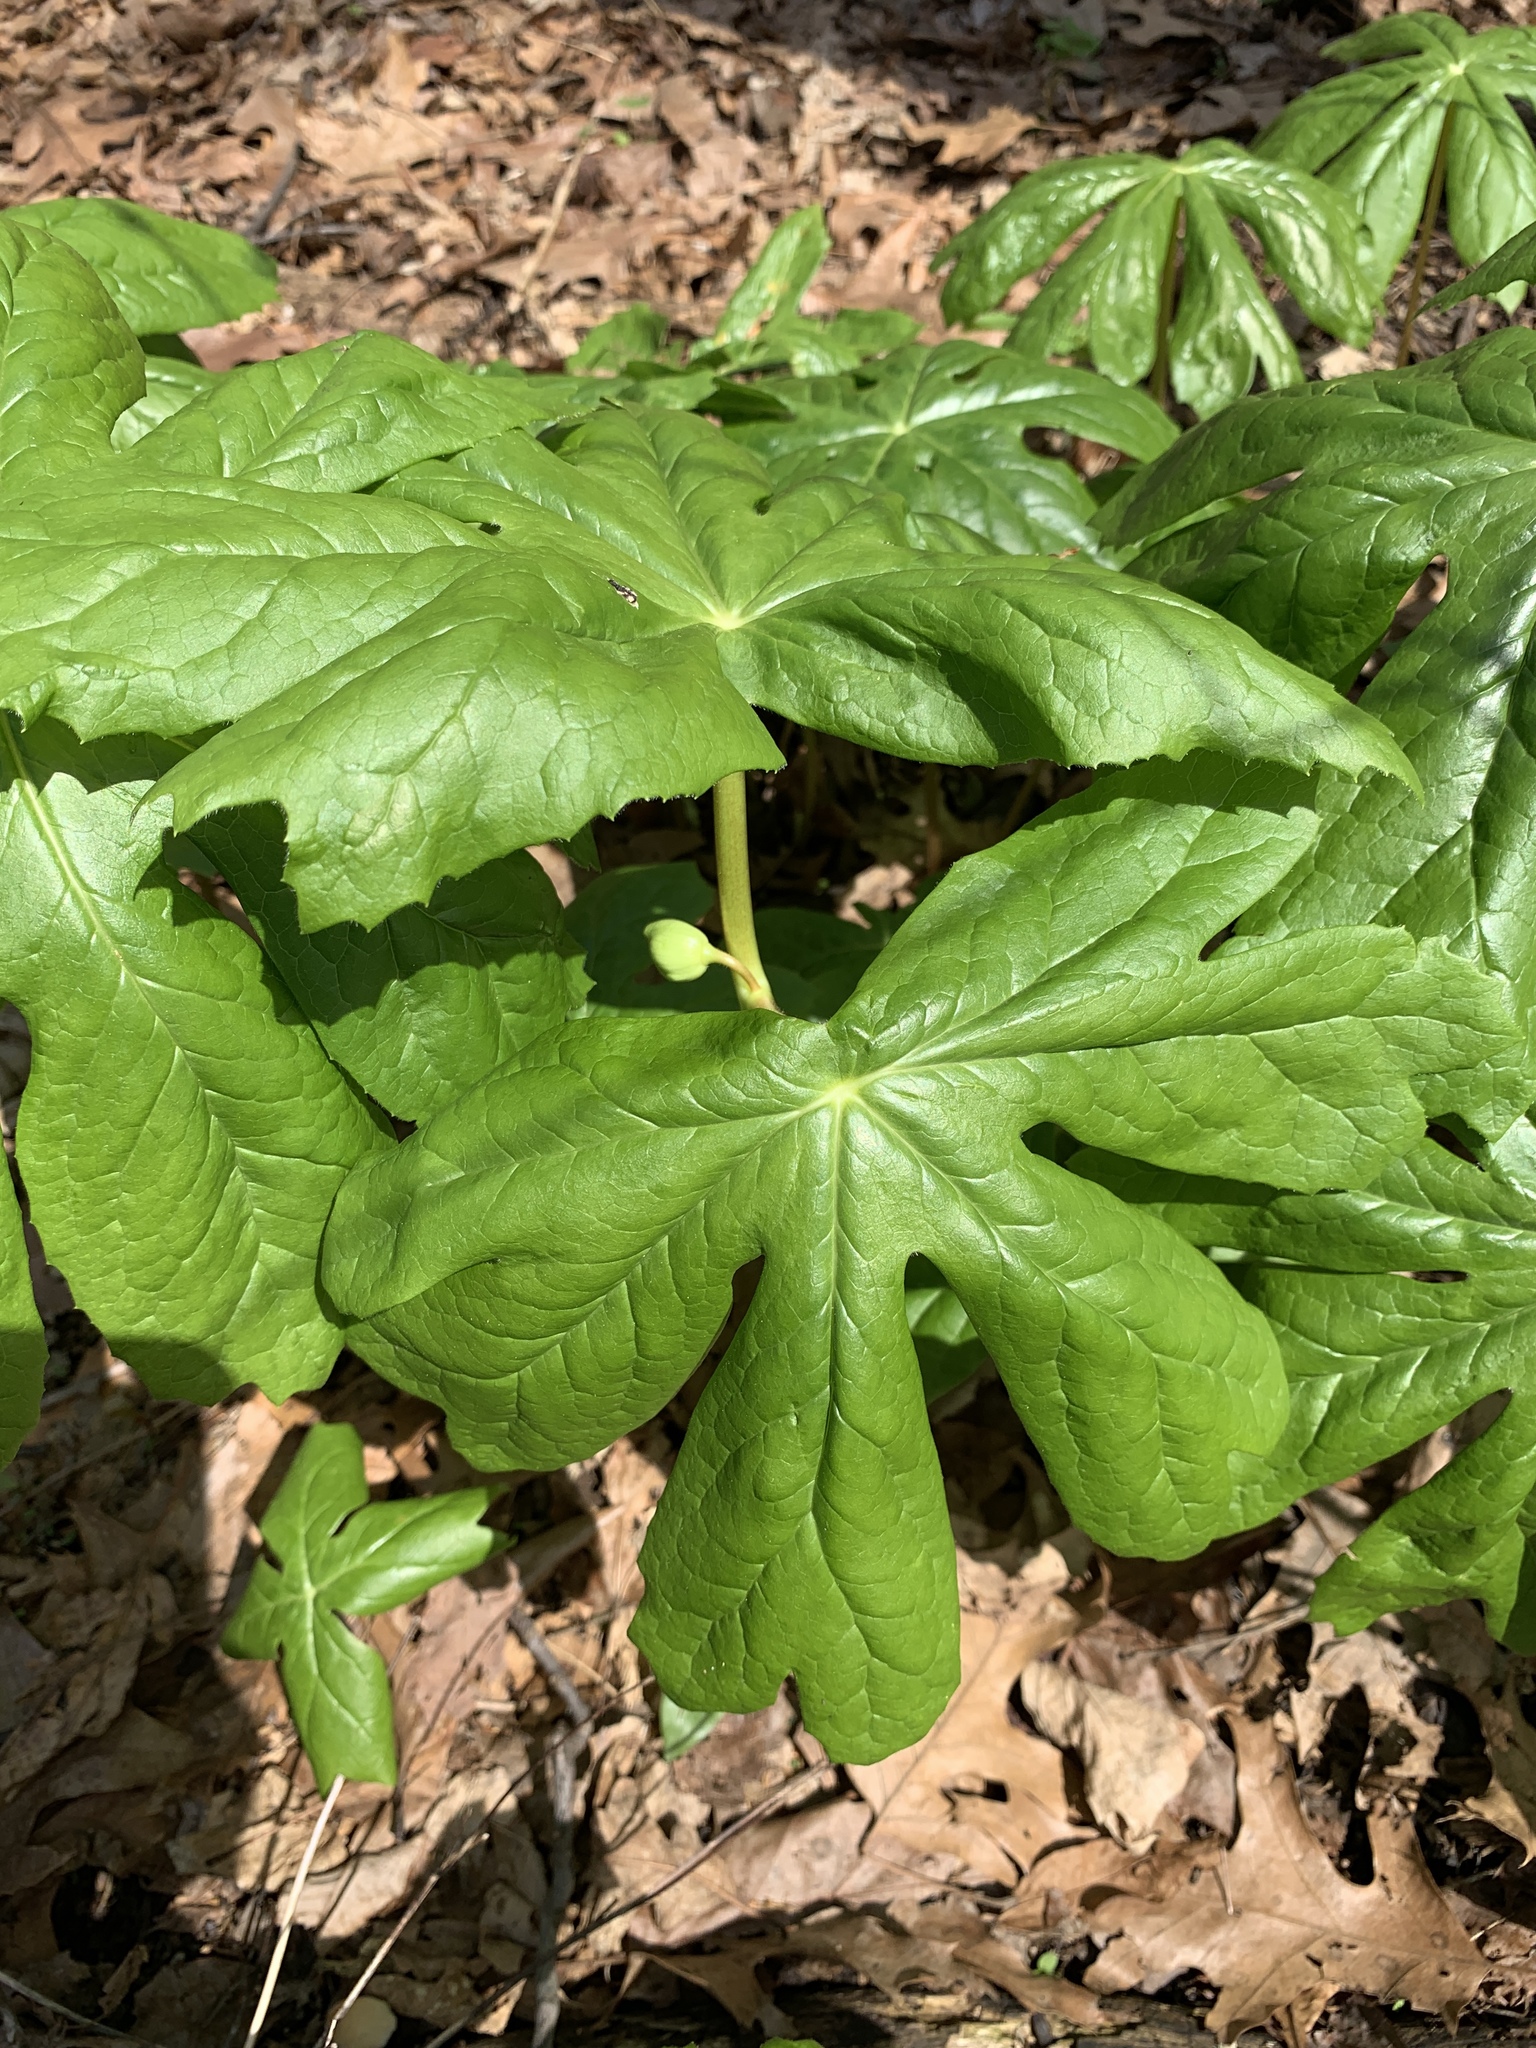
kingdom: Plantae
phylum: Tracheophyta
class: Magnoliopsida
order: Ranunculales
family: Berberidaceae
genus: Podophyllum
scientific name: Podophyllum peltatum
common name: Wild mandrake
